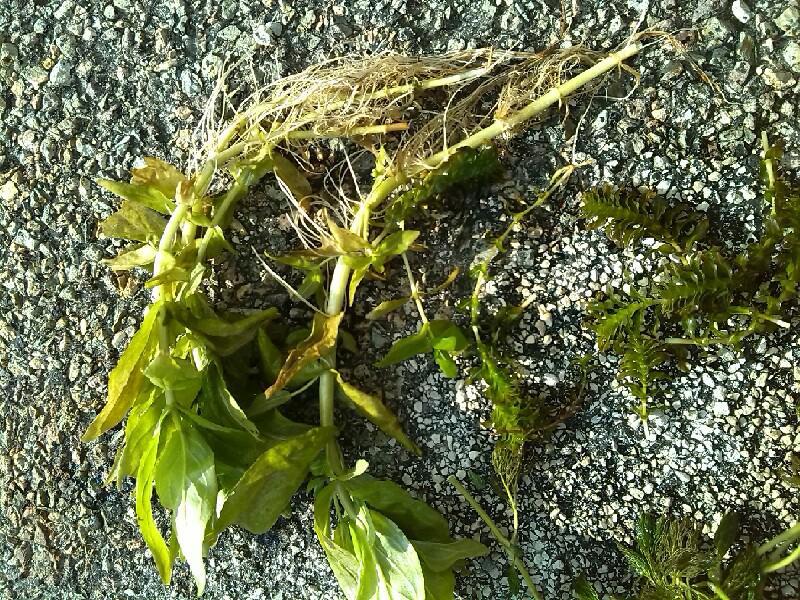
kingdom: Plantae
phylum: Tracheophyta
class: Magnoliopsida
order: Boraginales
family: Boraginaceae
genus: Myosotis
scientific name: Myosotis scorpioides
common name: Water forget-me-not
